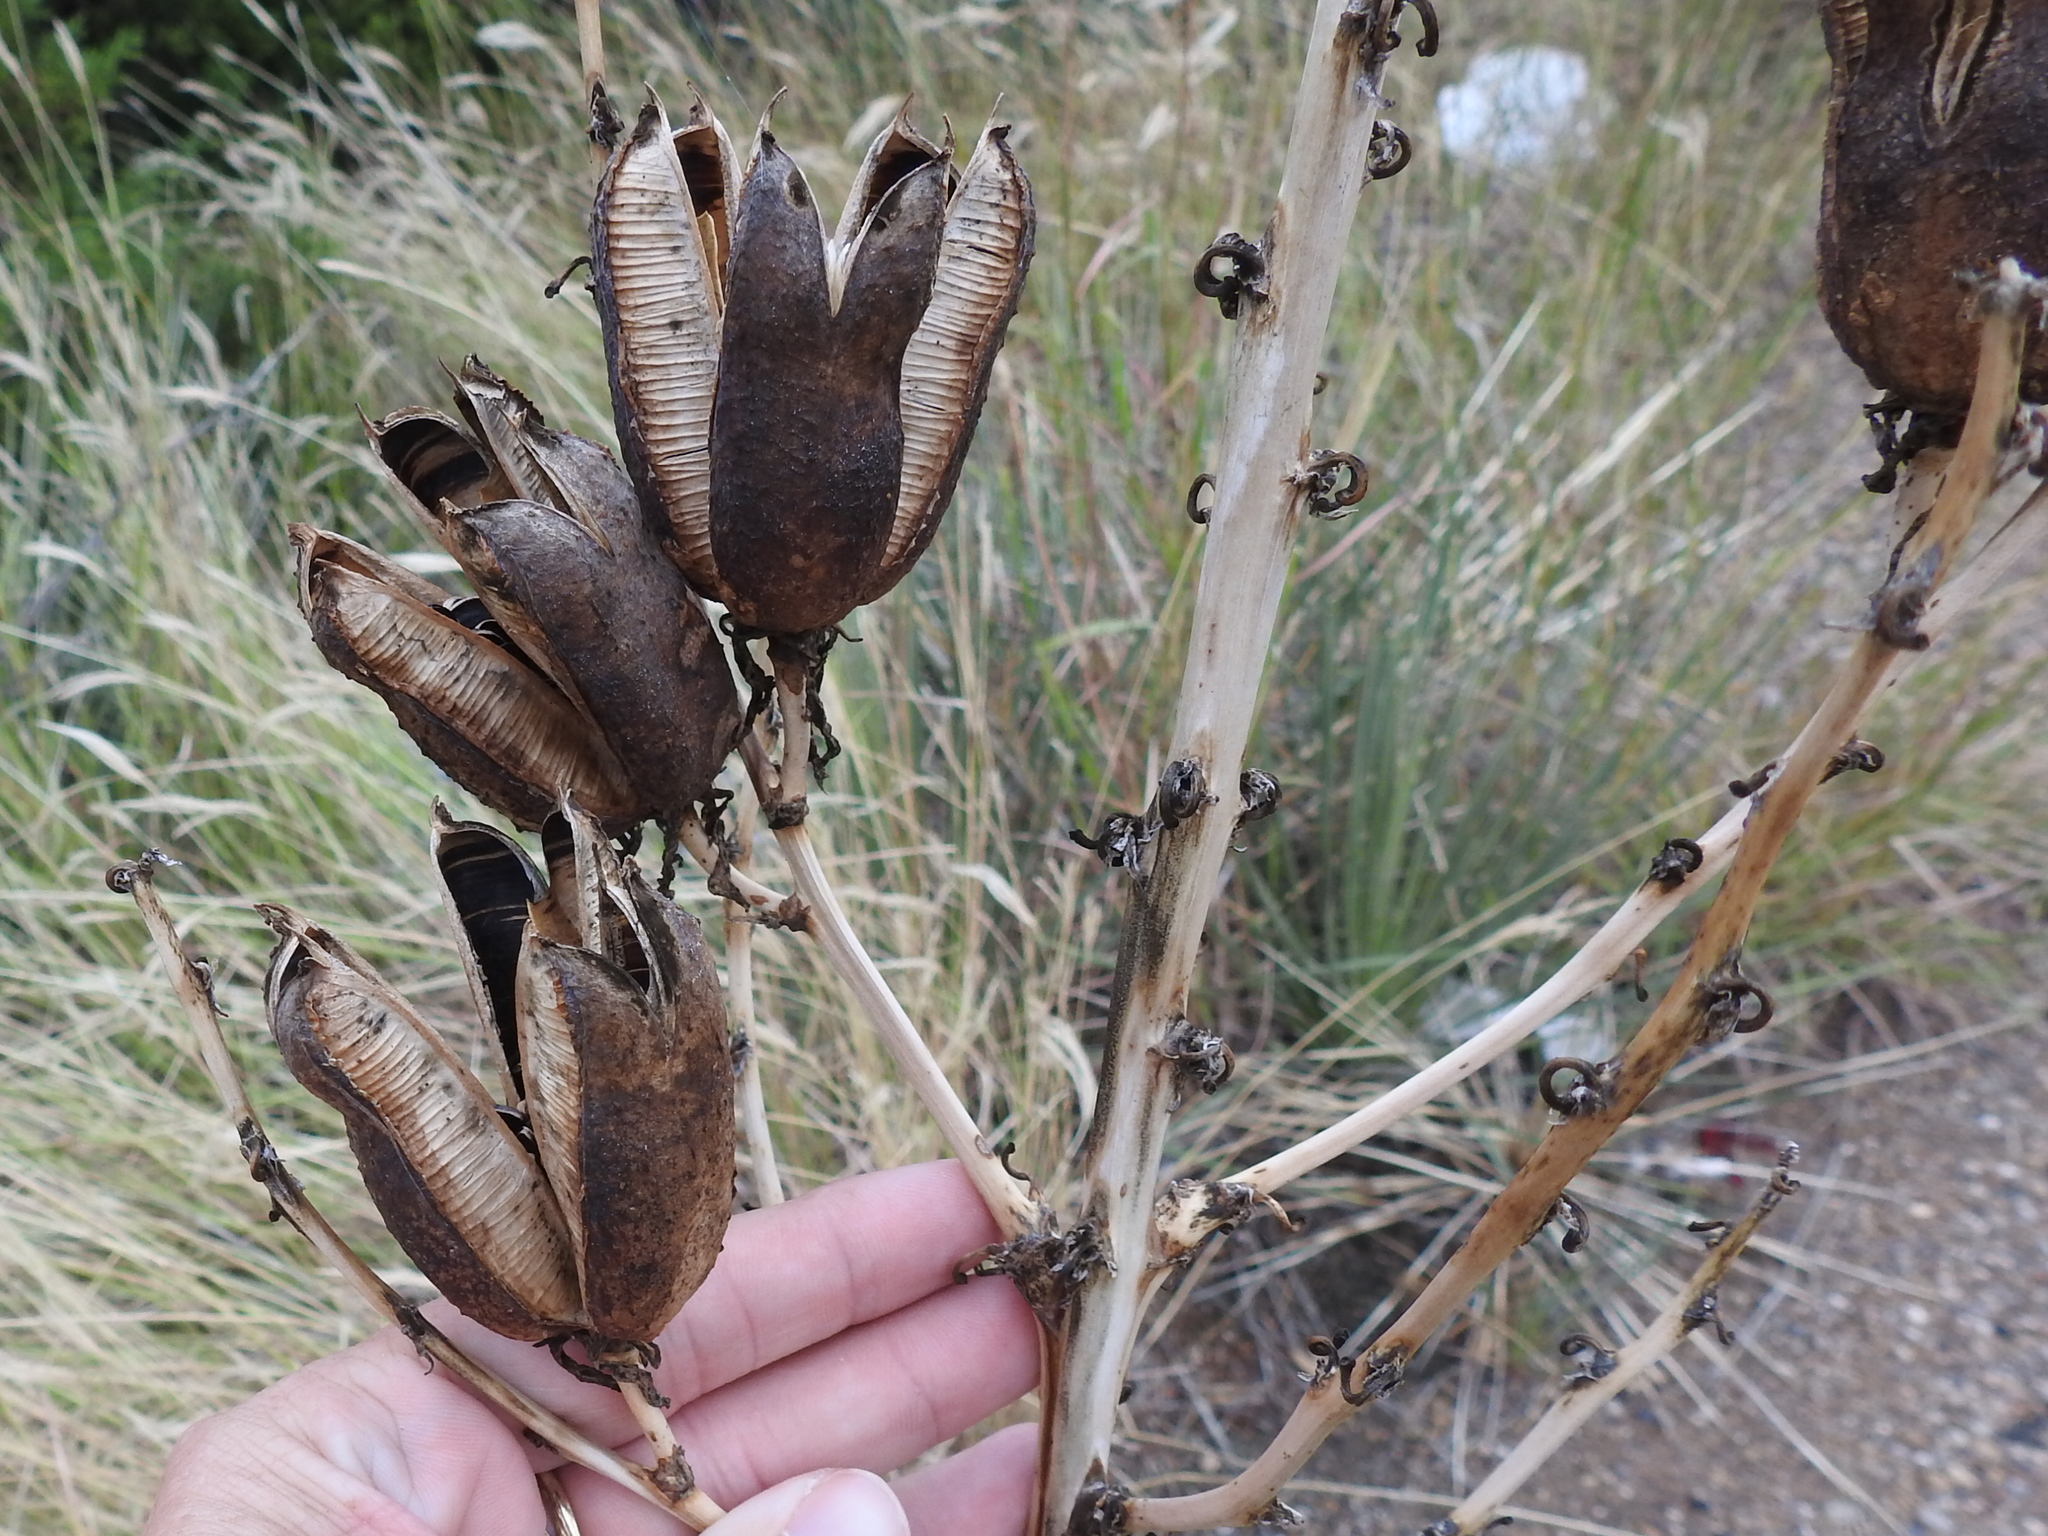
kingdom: Plantae
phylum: Tracheophyta
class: Liliopsida
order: Asparagales
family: Asparagaceae
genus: Yucca
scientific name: Yucca glauca
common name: Great plains yucca
